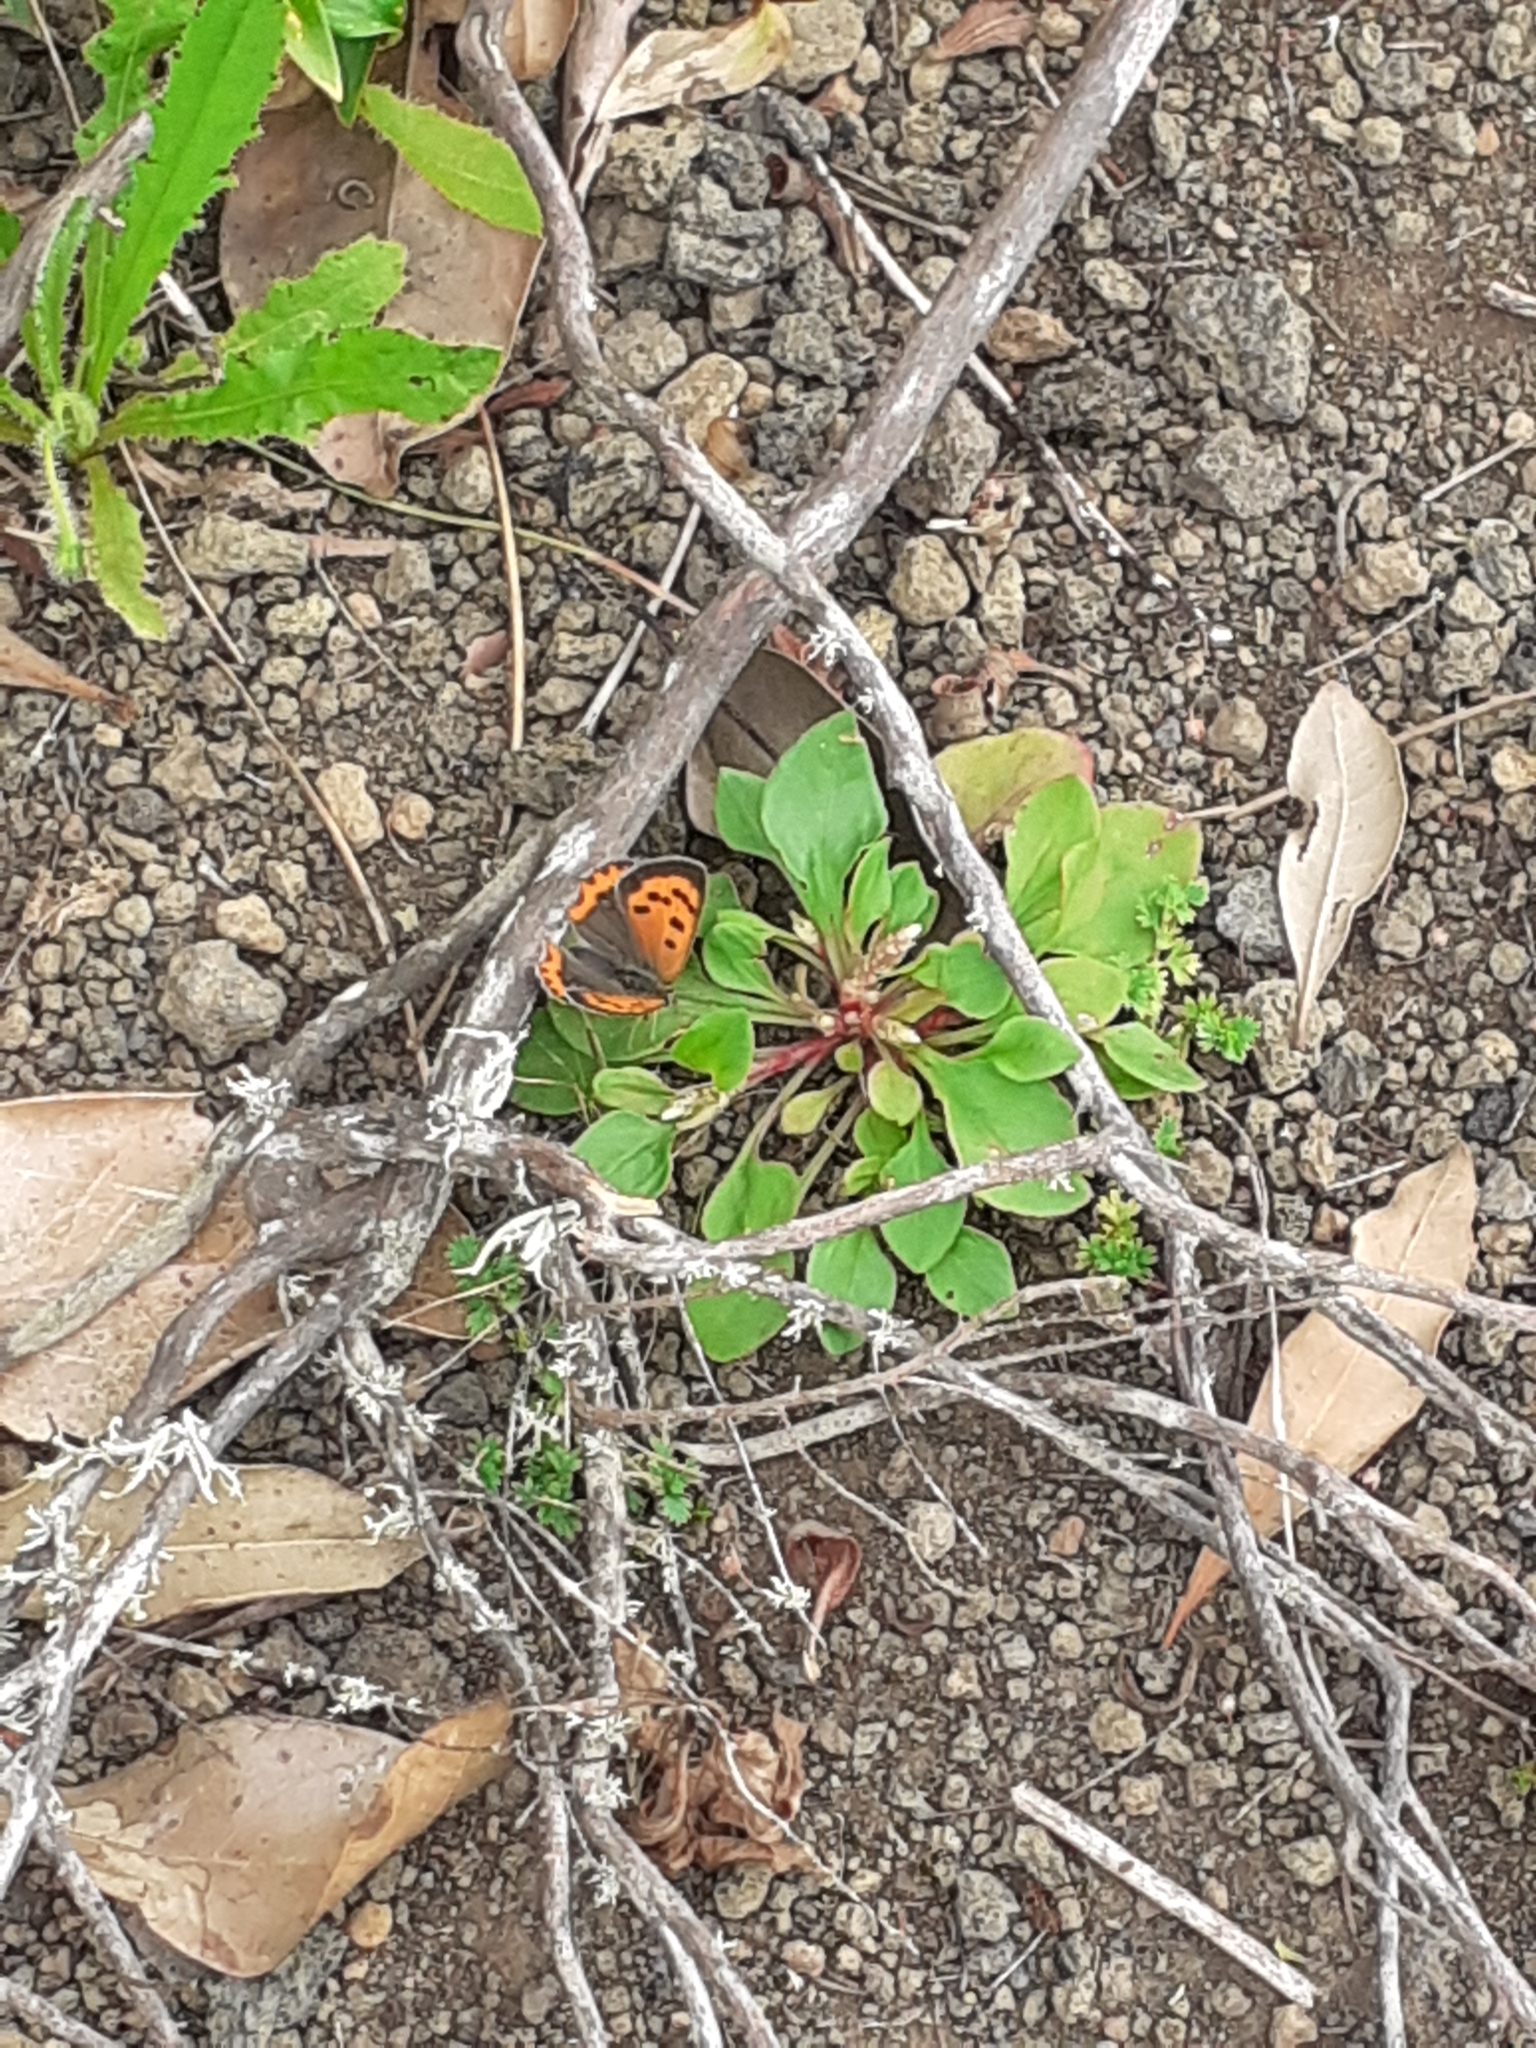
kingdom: Animalia
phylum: Arthropoda
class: Insecta
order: Lepidoptera
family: Lycaenidae
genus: Lycaena
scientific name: Lycaena phlaeas
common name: Small copper
